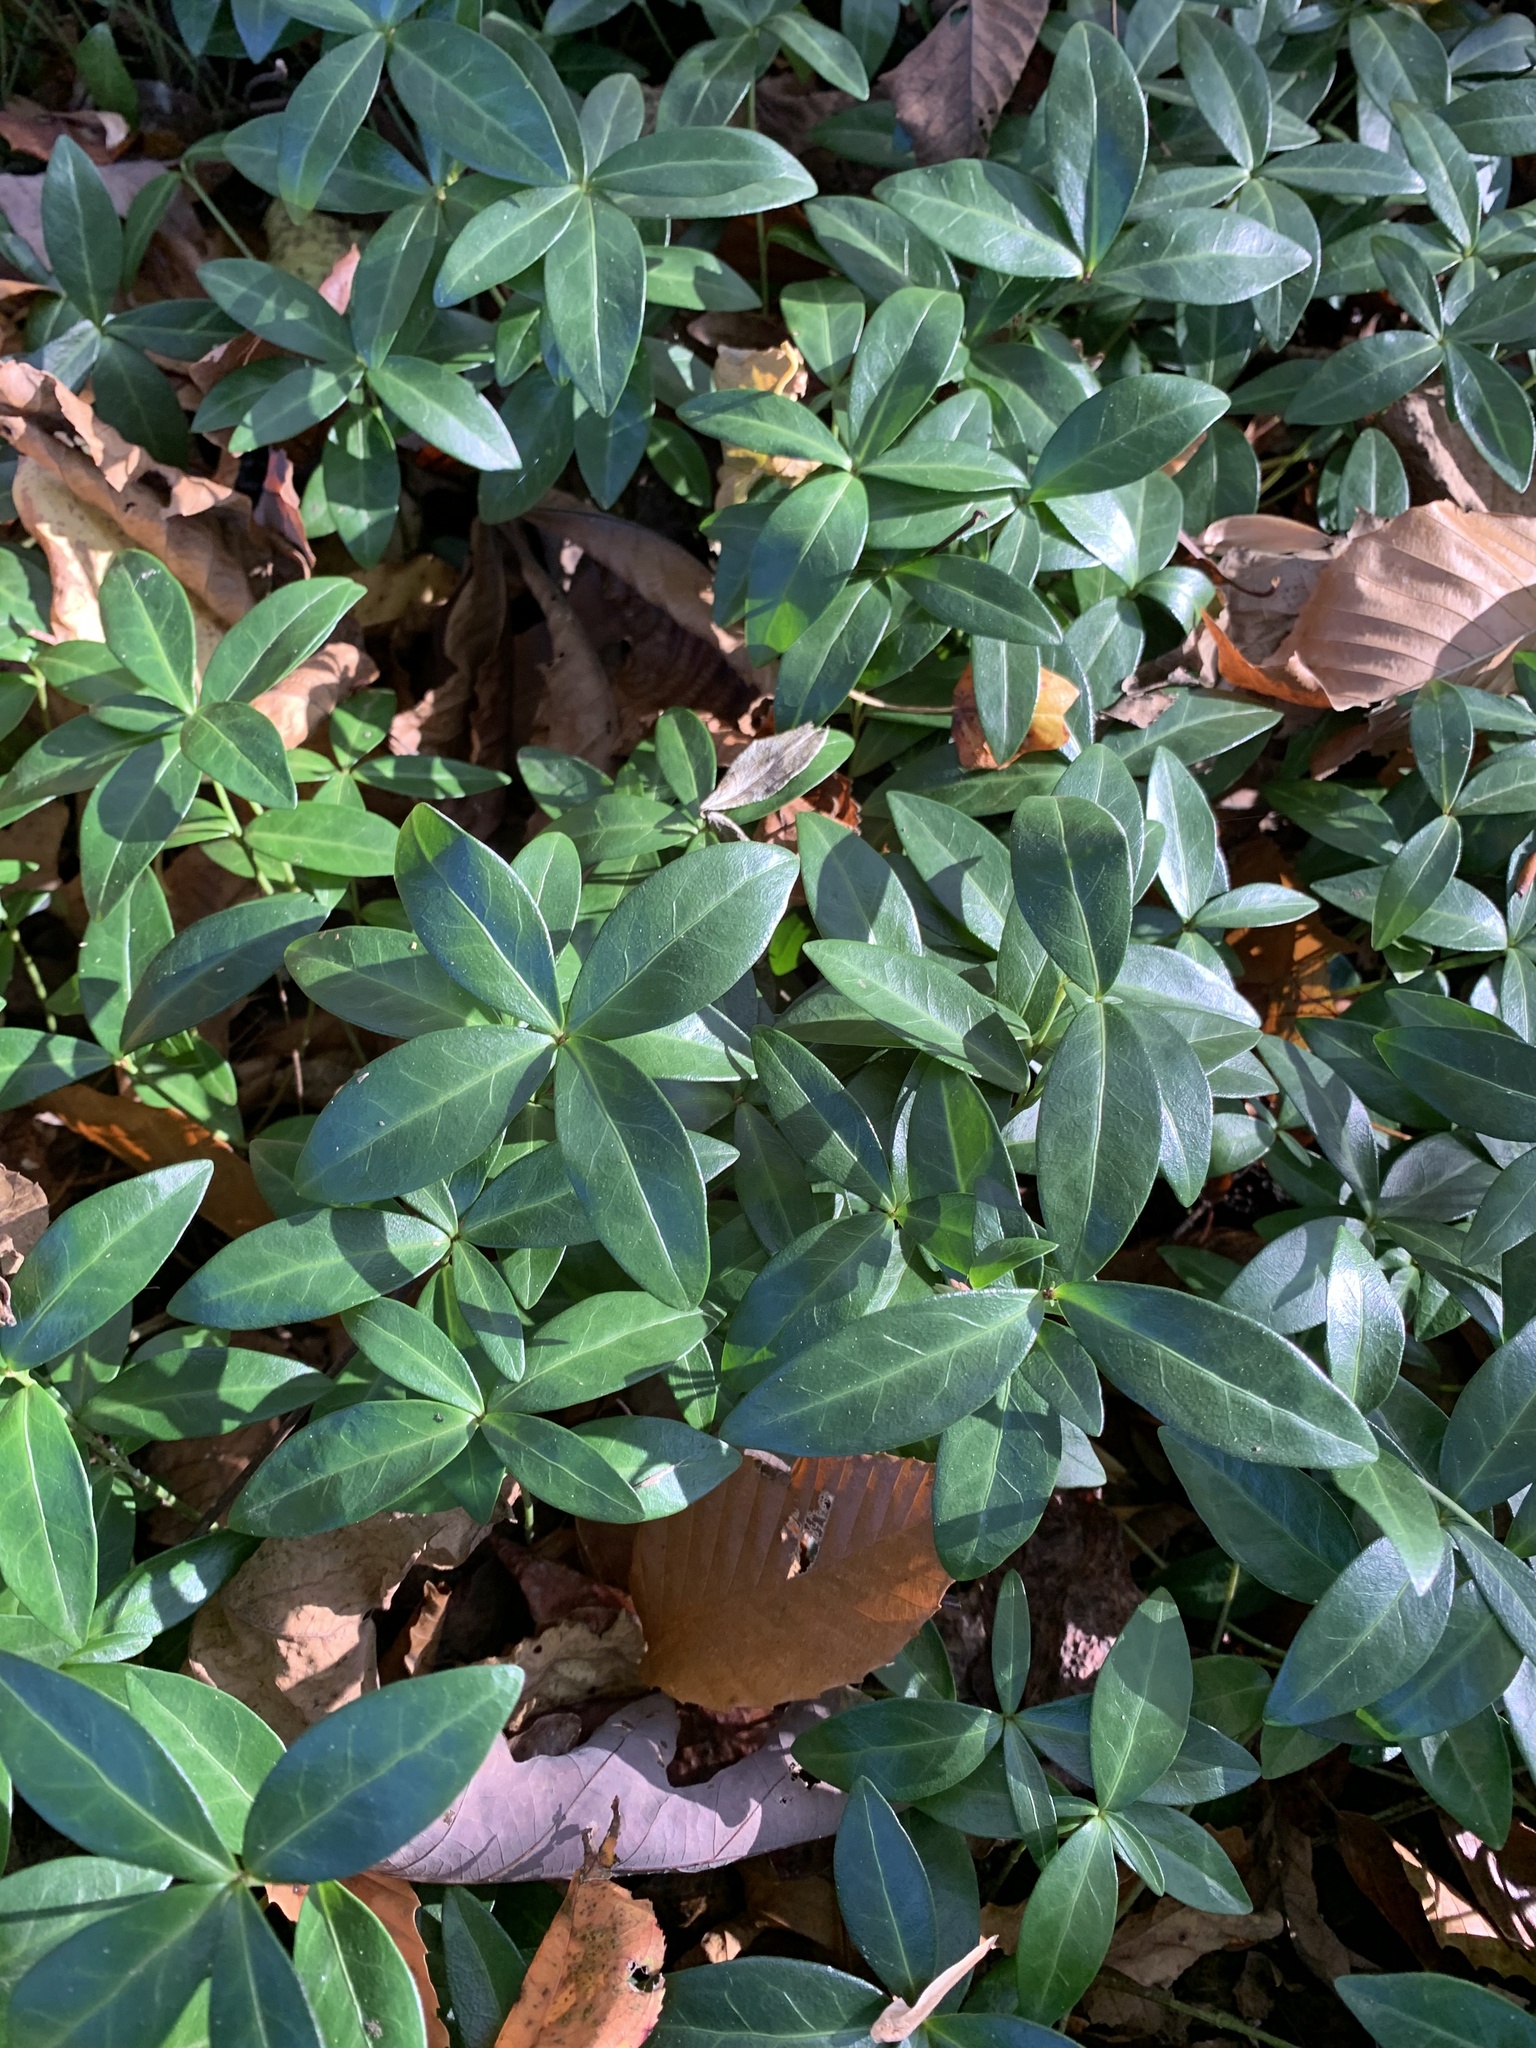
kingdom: Plantae
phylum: Tracheophyta
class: Magnoliopsida
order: Gentianales
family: Apocynaceae
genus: Vinca
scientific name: Vinca minor
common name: Lesser periwinkle
